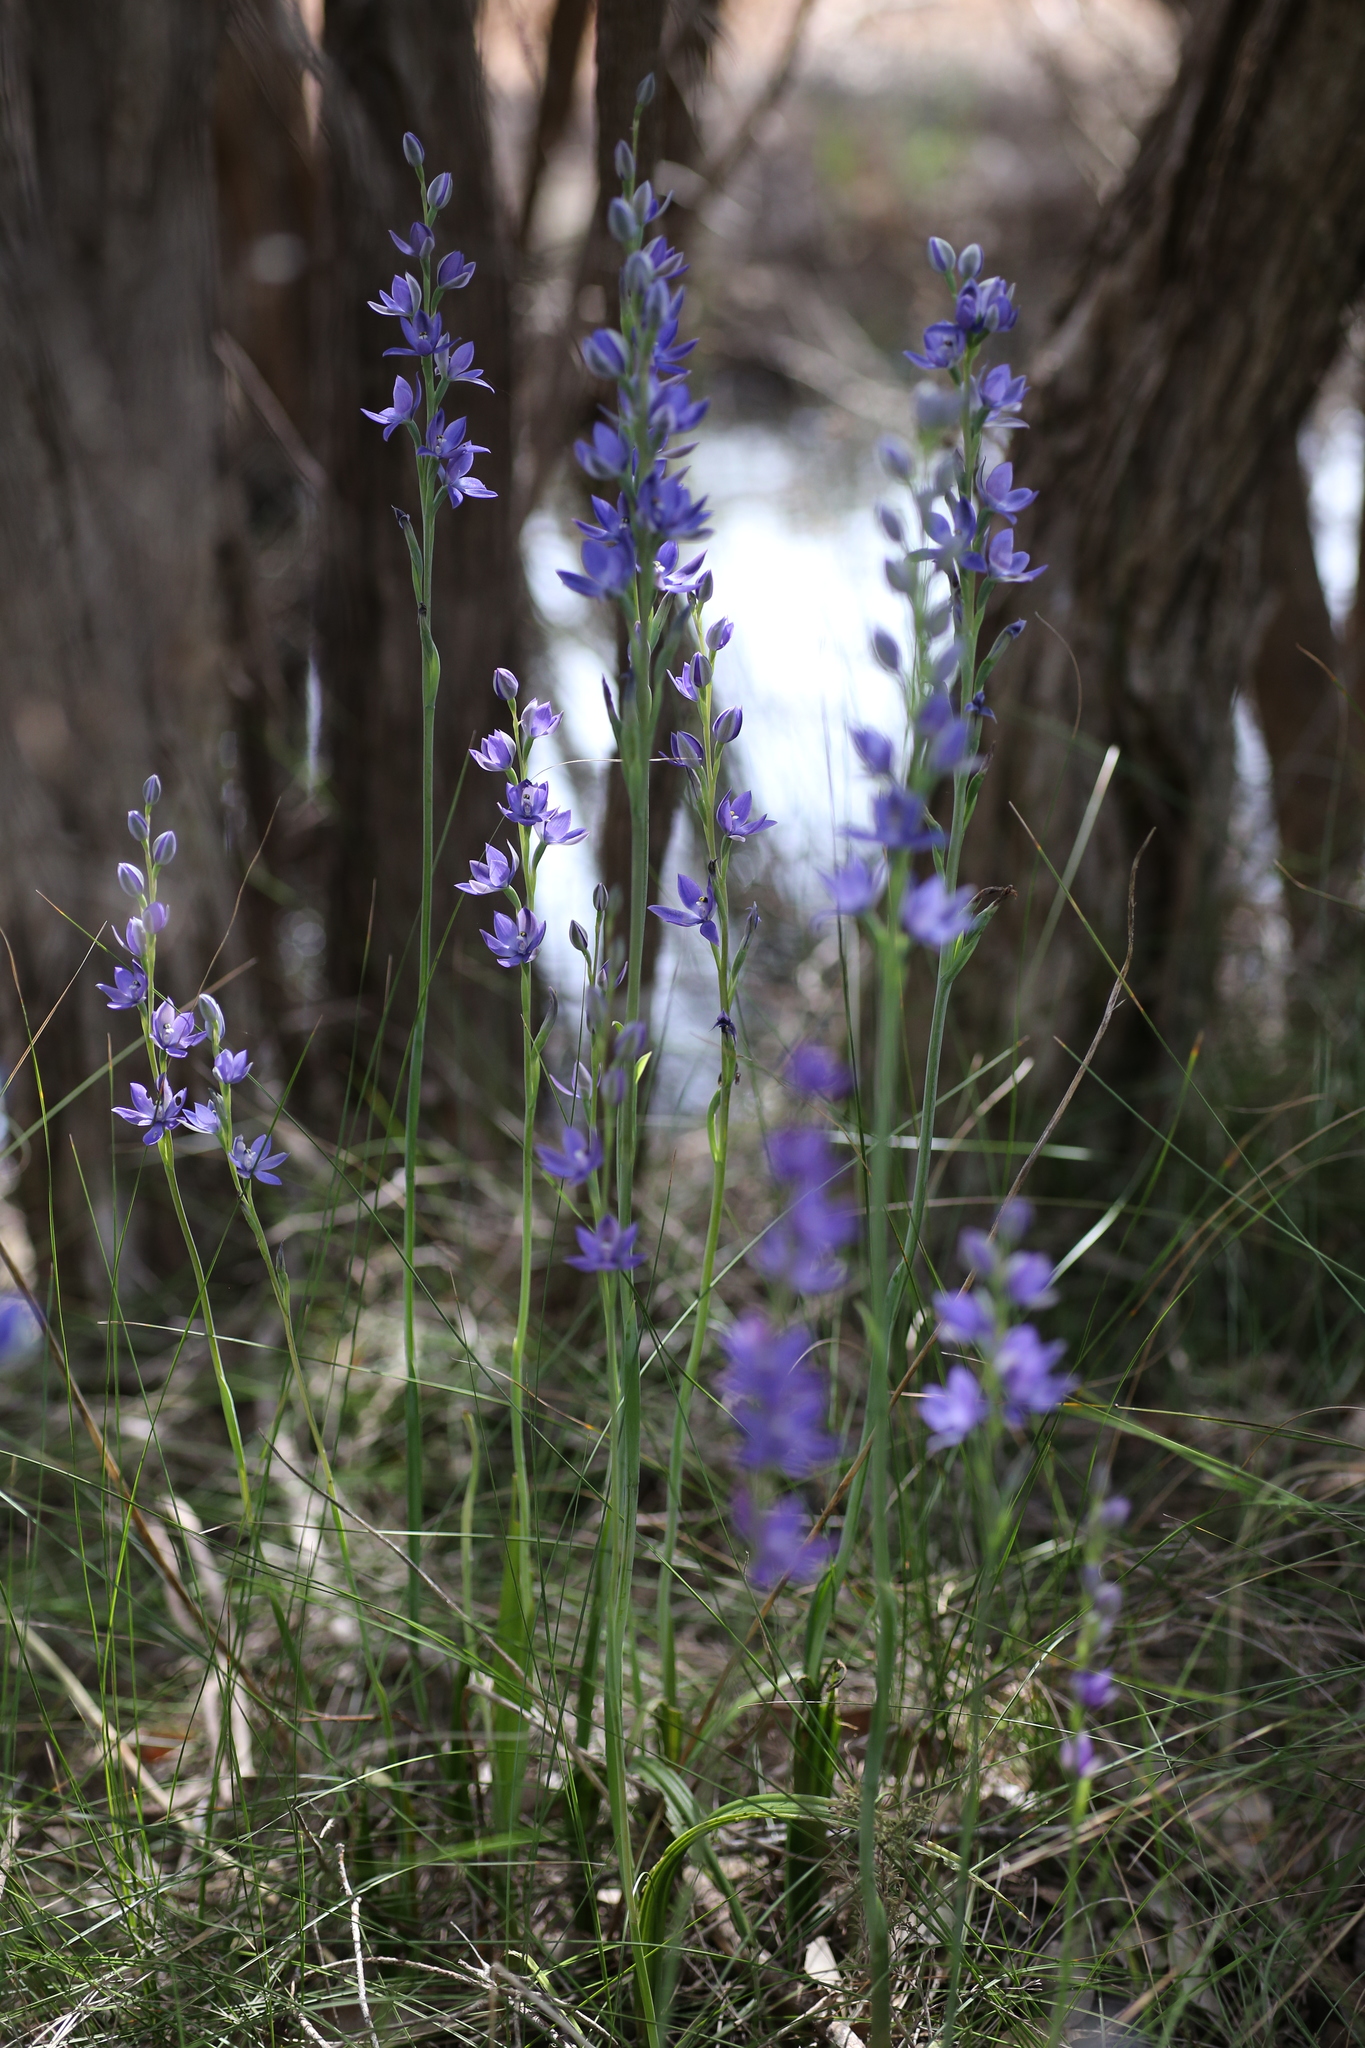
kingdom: Plantae
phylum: Tracheophyta
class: Liliopsida
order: Asparagales
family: Orchidaceae
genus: Thelymitra
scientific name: Thelymitra macrophylla
